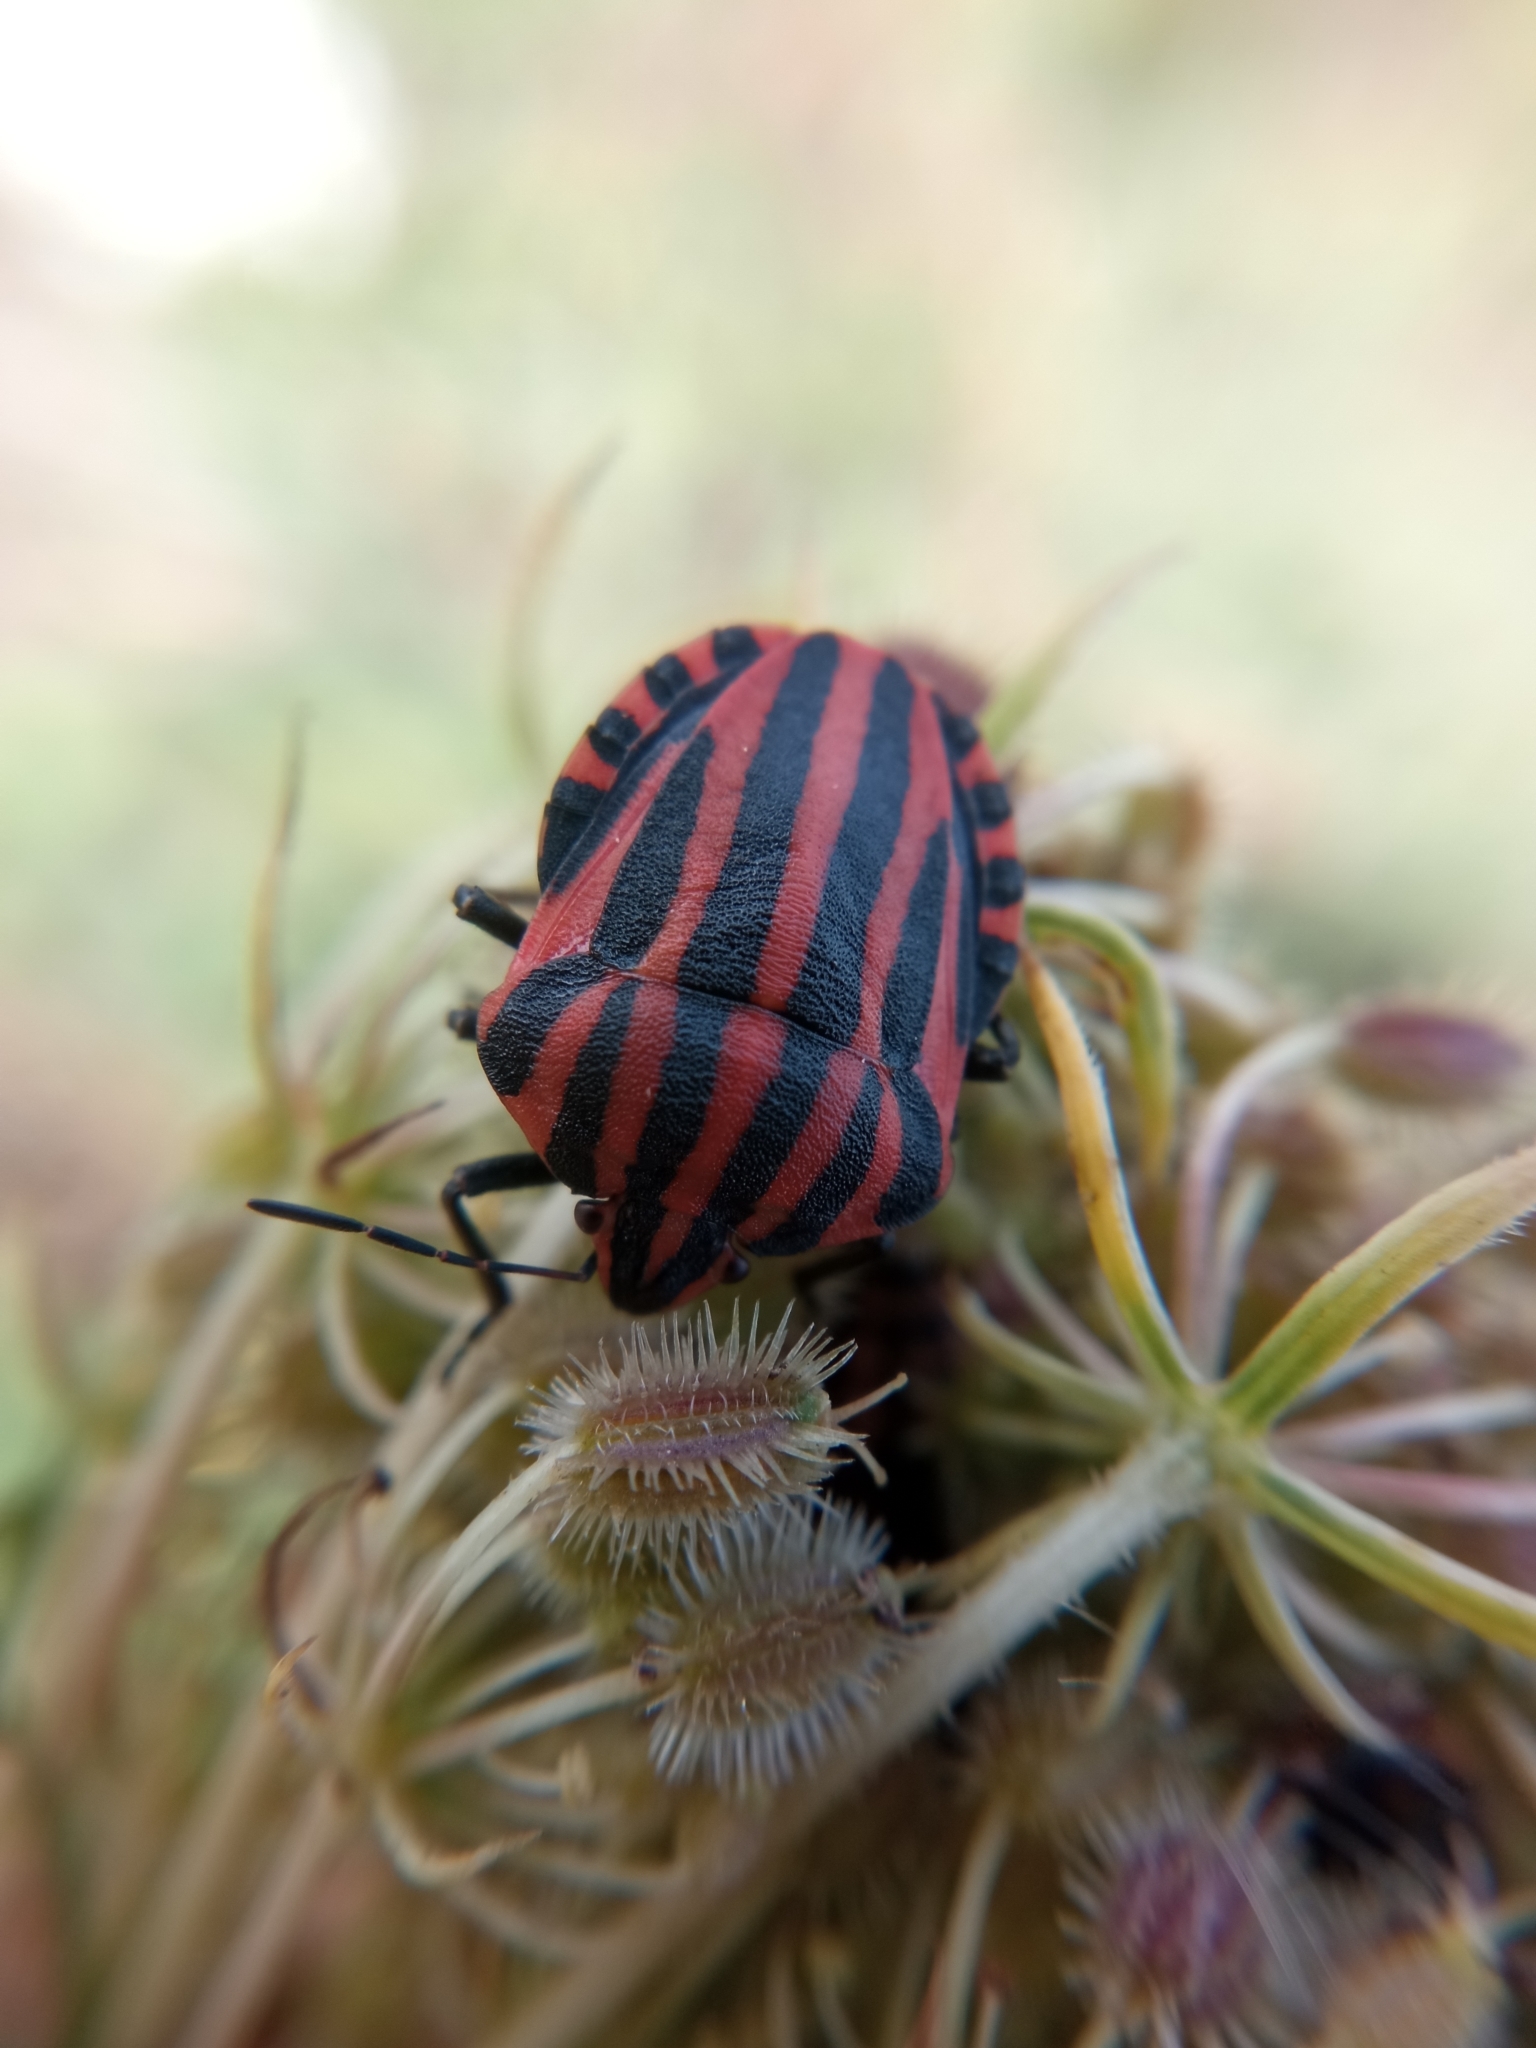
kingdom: Animalia
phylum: Arthropoda
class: Insecta
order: Hemiptera
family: Pentatomidae
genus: Graphosoma
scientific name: Graphosoma italicum
